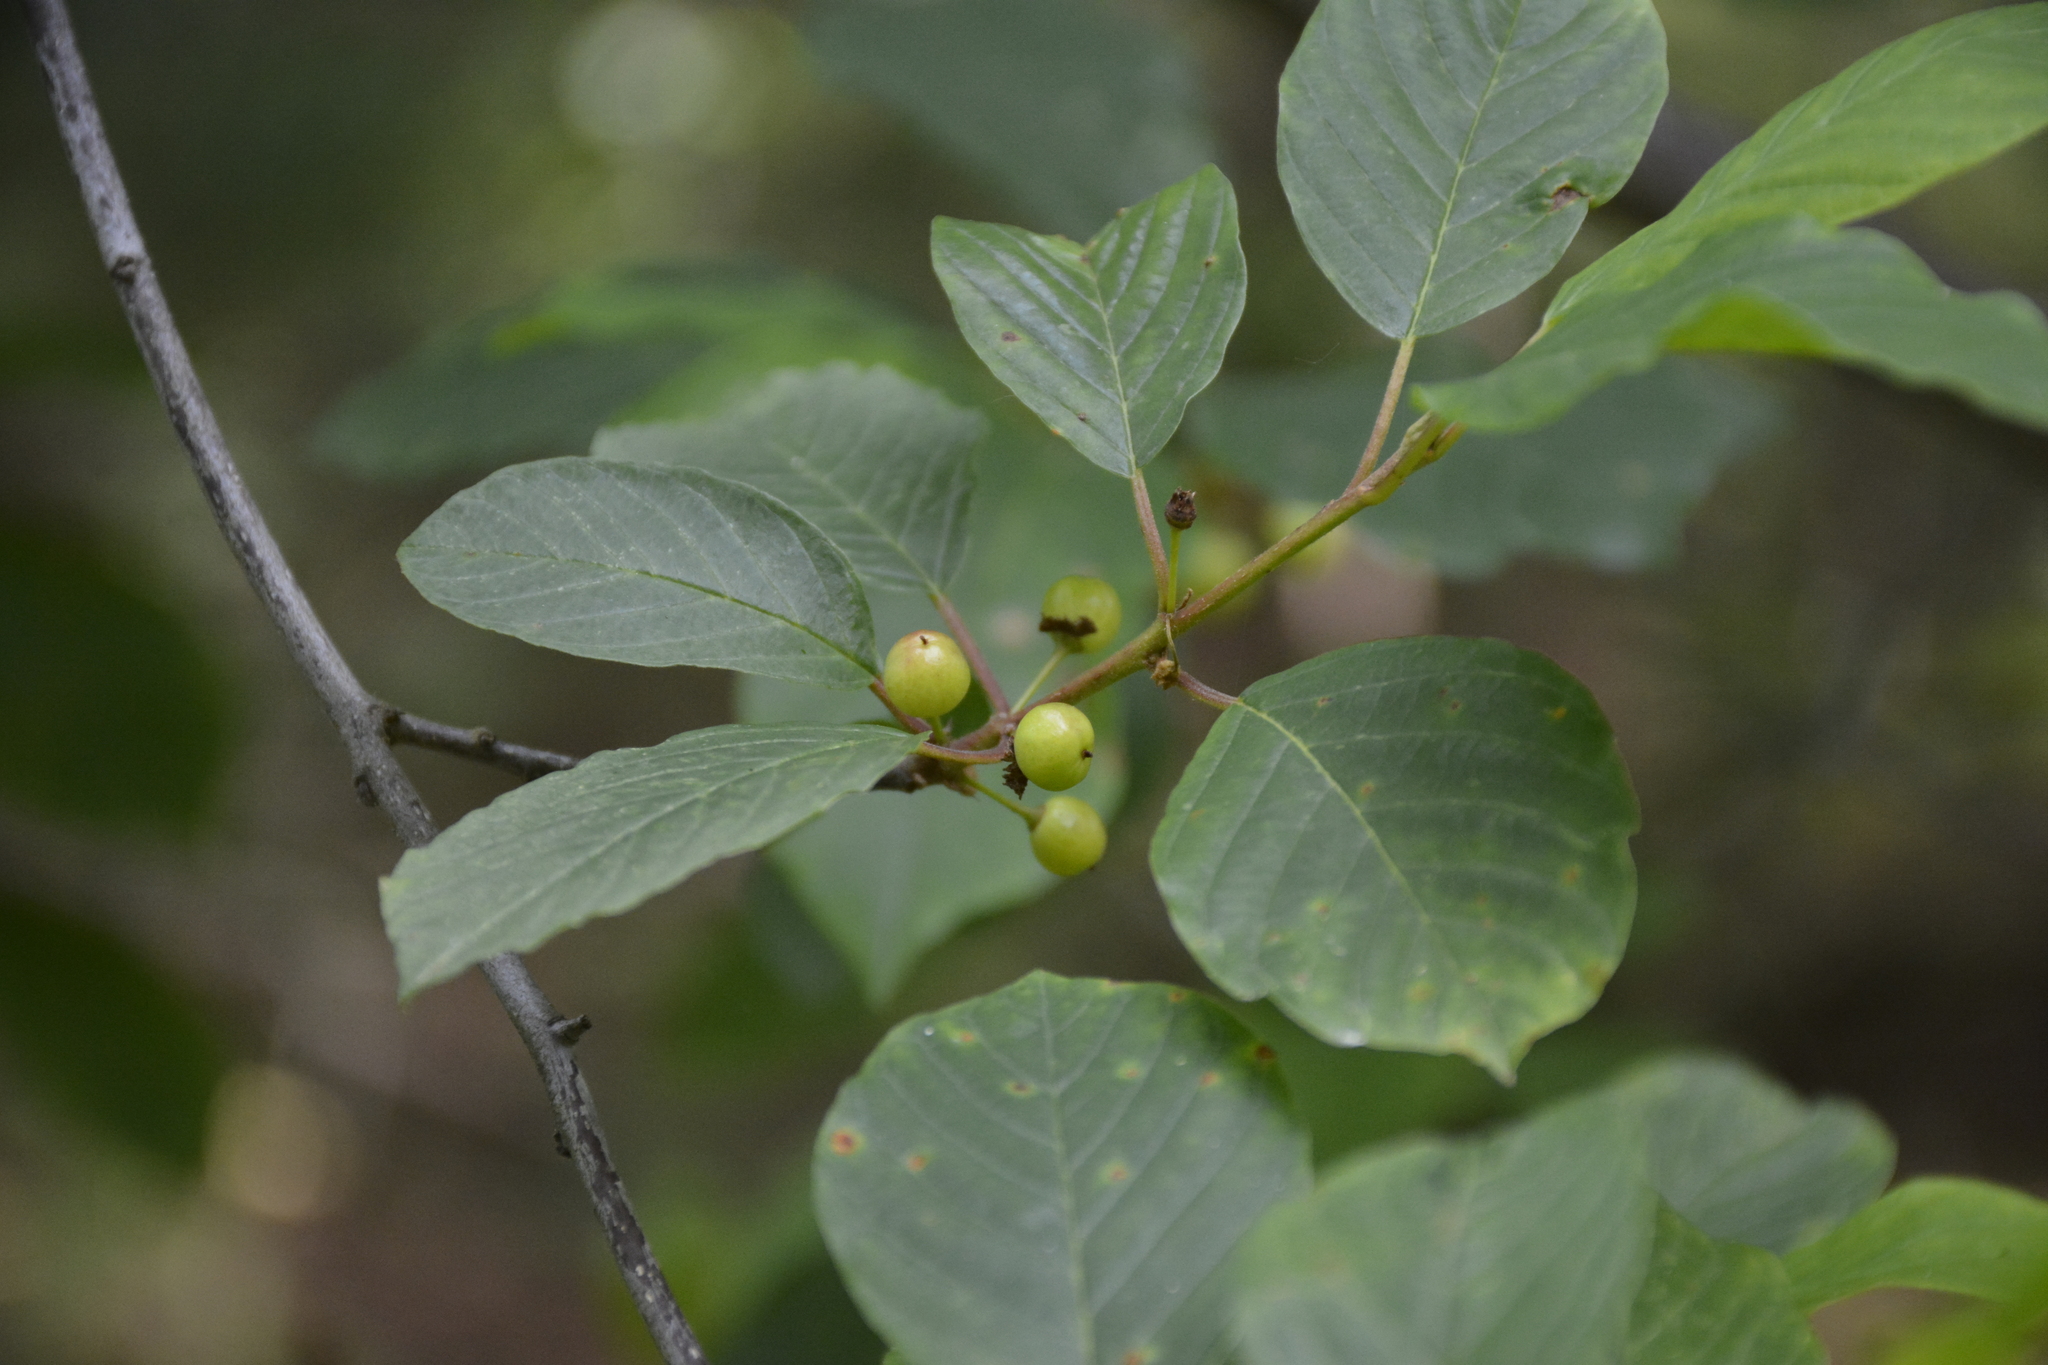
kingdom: Plantae
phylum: Tracheophyta
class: Magnoliopsida
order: Rosales
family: Rhamnaceae
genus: Frangula
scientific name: Frangula alnus
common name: Alder buckthorn
